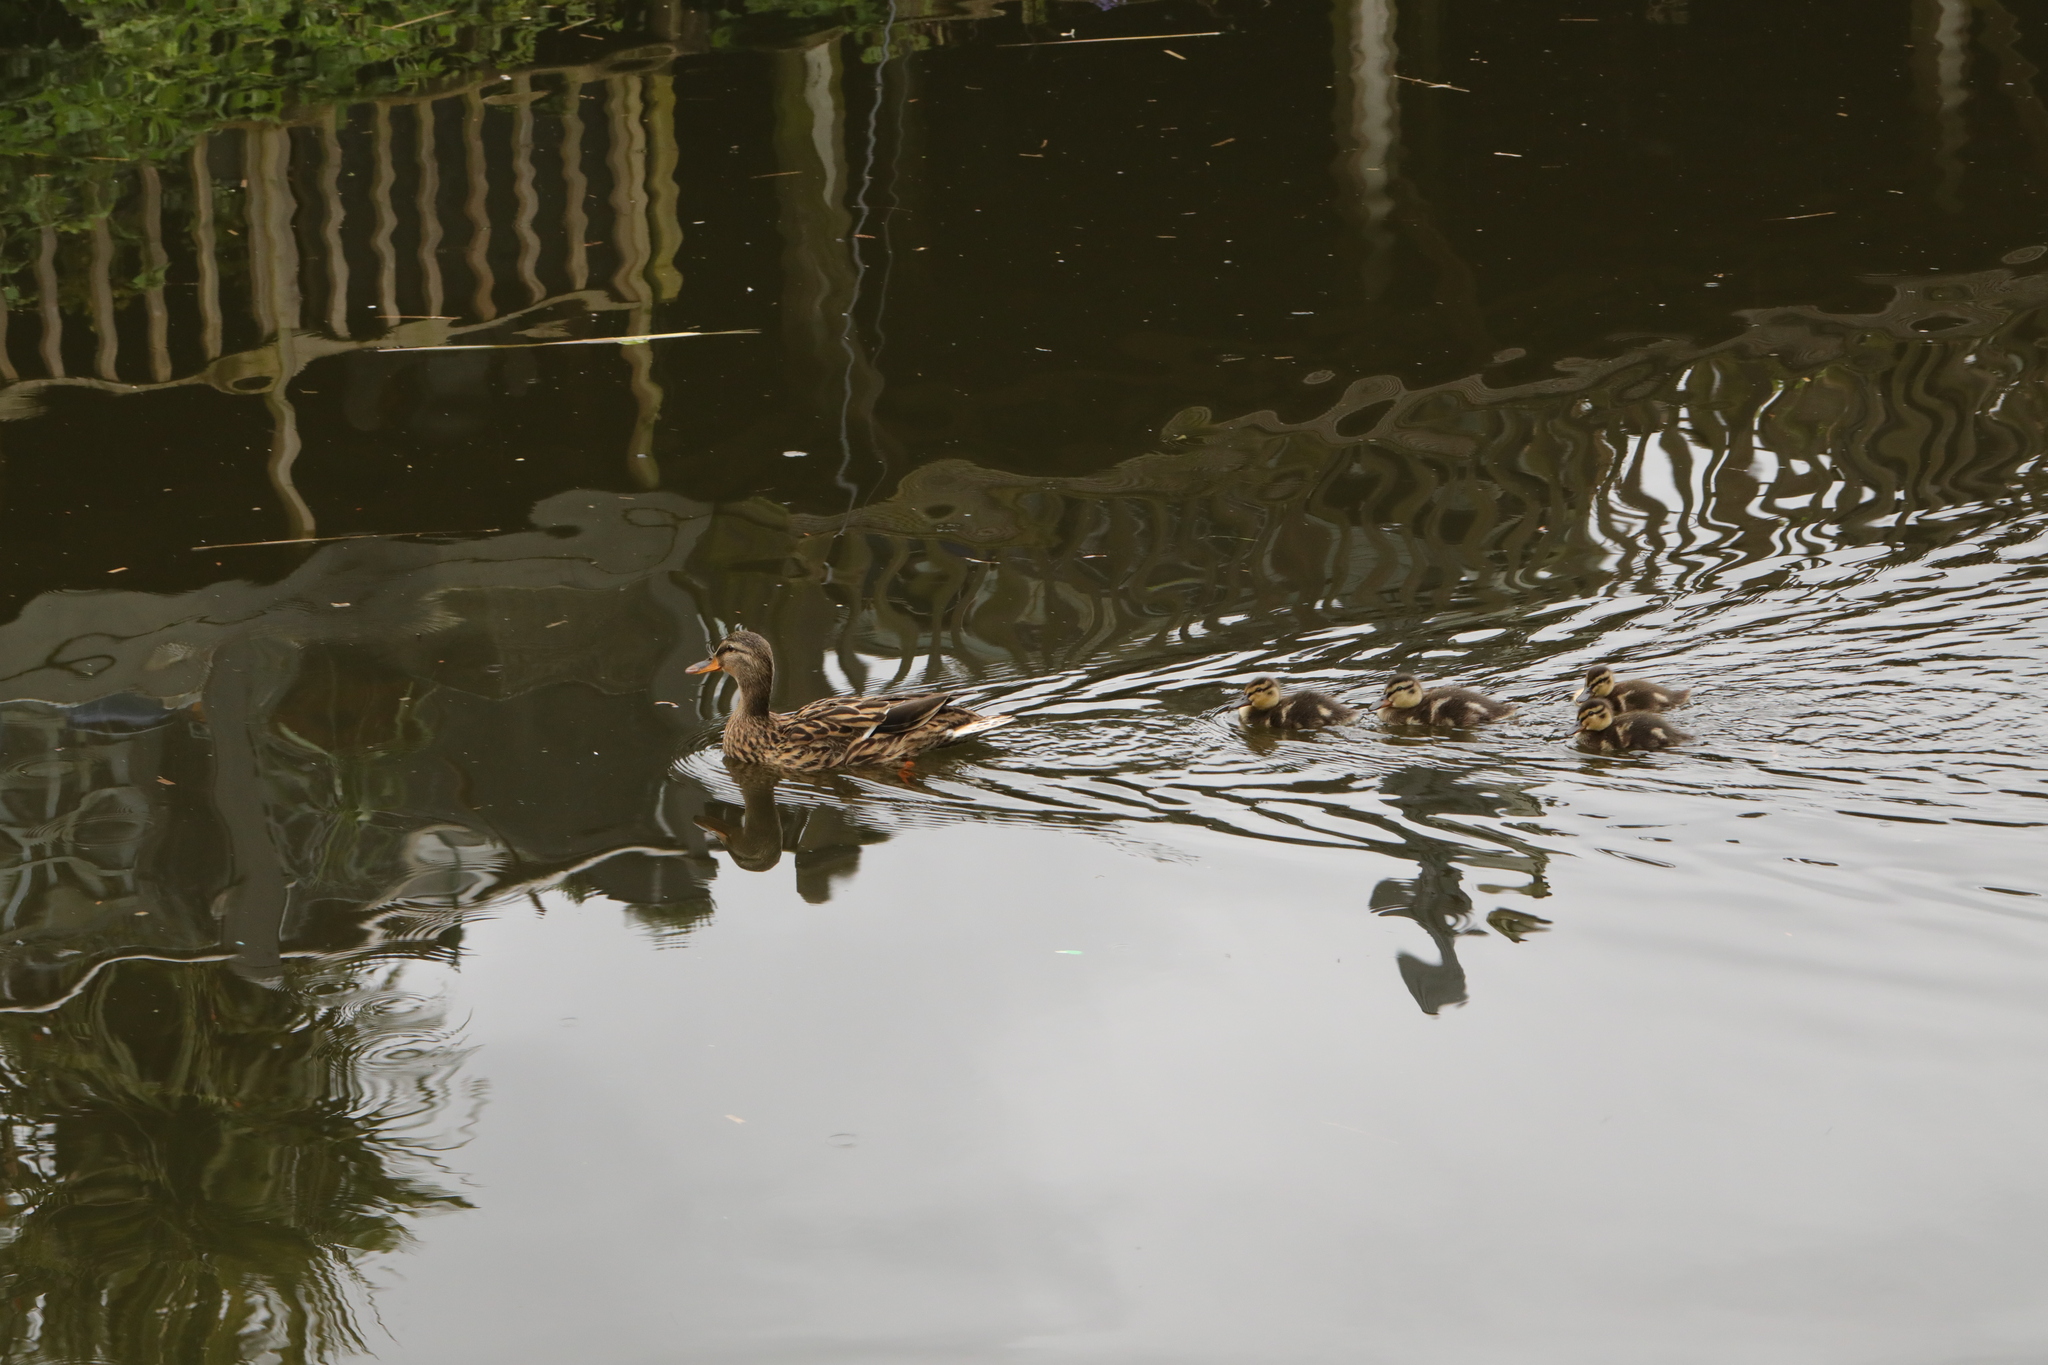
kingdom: Animalia
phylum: Chordata
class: Aves
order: Anseriformes
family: Anatidae
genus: Anas
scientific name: Anas platyrhynchos
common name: Mallard
